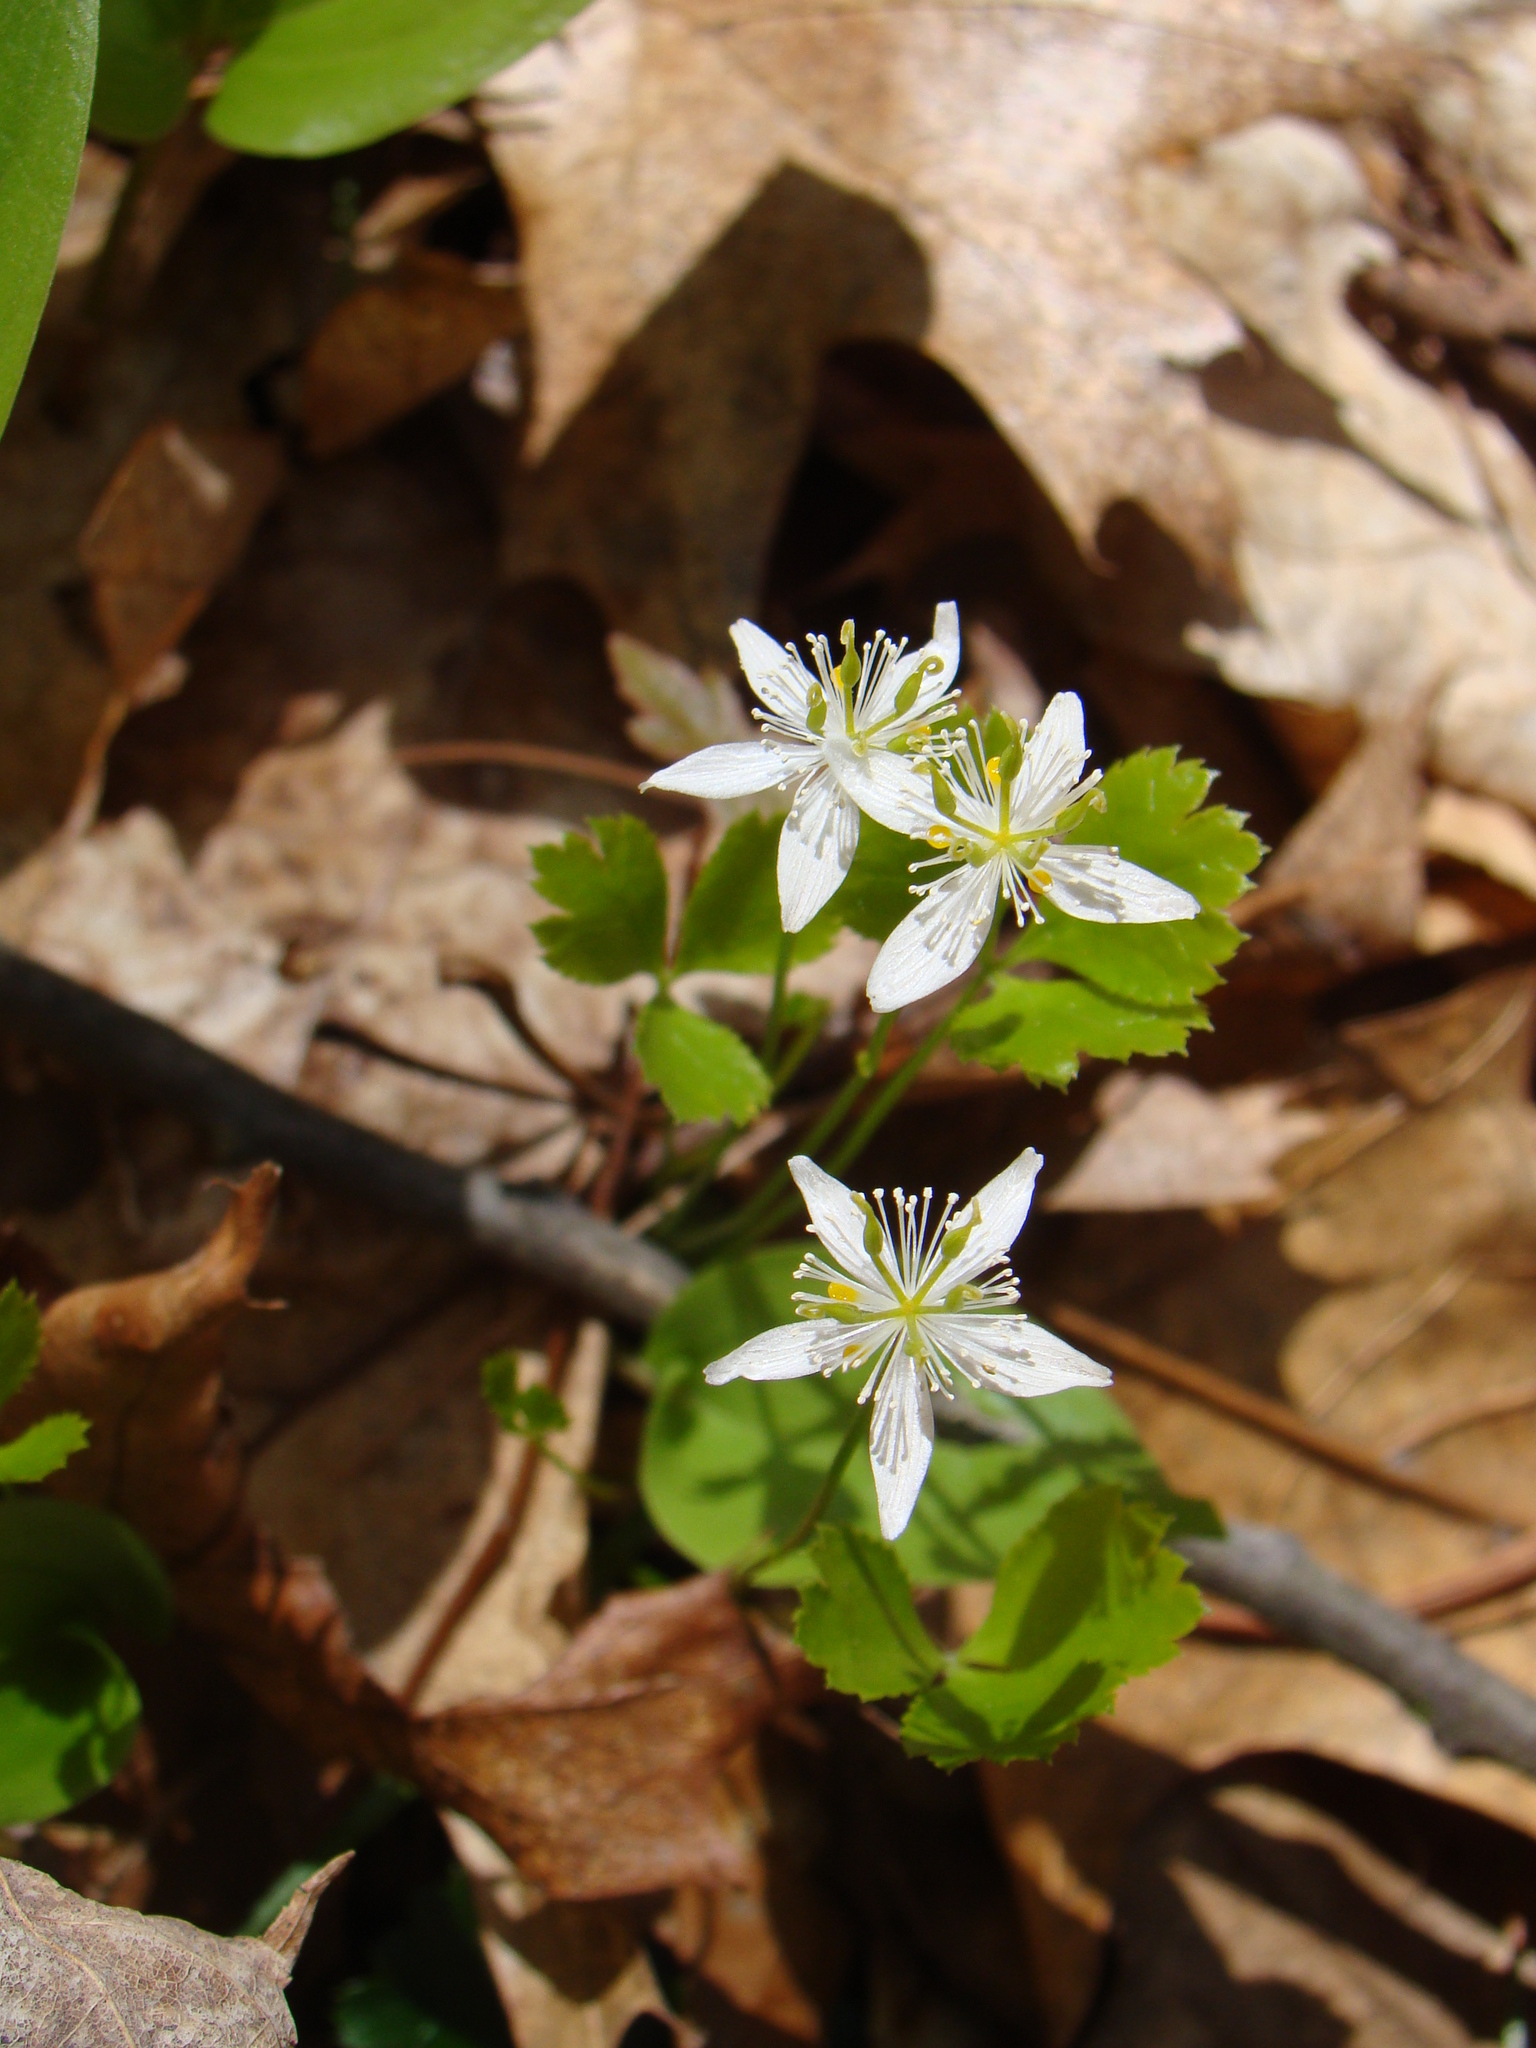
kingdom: Plantae
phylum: Tracheophyta
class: Magnoliopsida
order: Ranunculales
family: Ranunculaceae
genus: Coptis
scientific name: Coptis trifolia
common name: Canker-root
